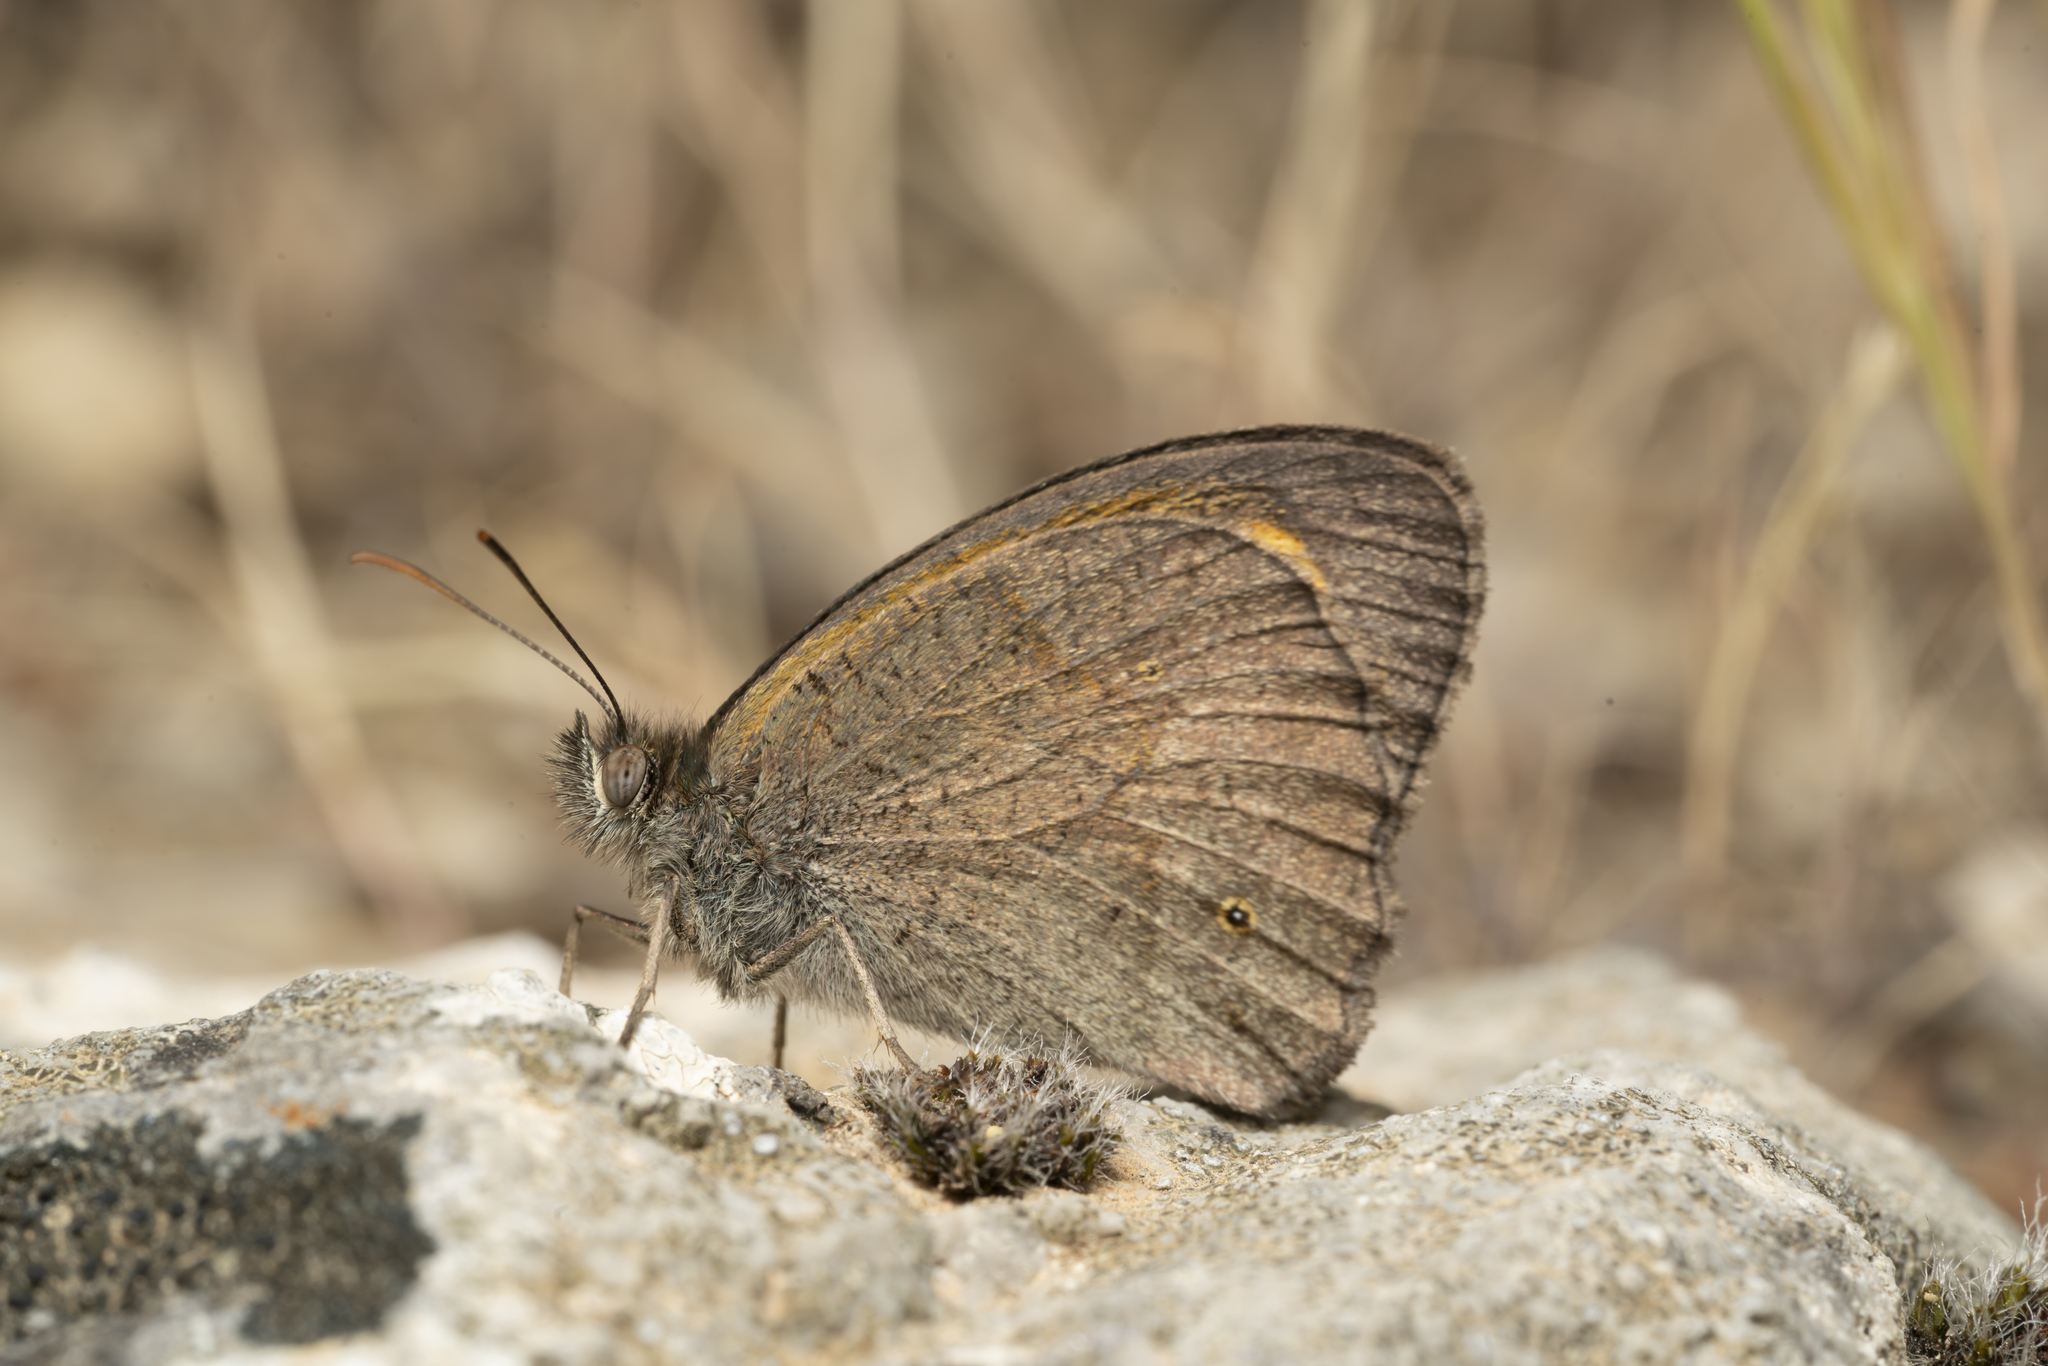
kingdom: Animalia
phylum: Arthropoda
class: Insecta
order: Lepidoptera
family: Nymphalidae
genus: Maniola
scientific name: Maniola telmessia
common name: Persian meadow brown
